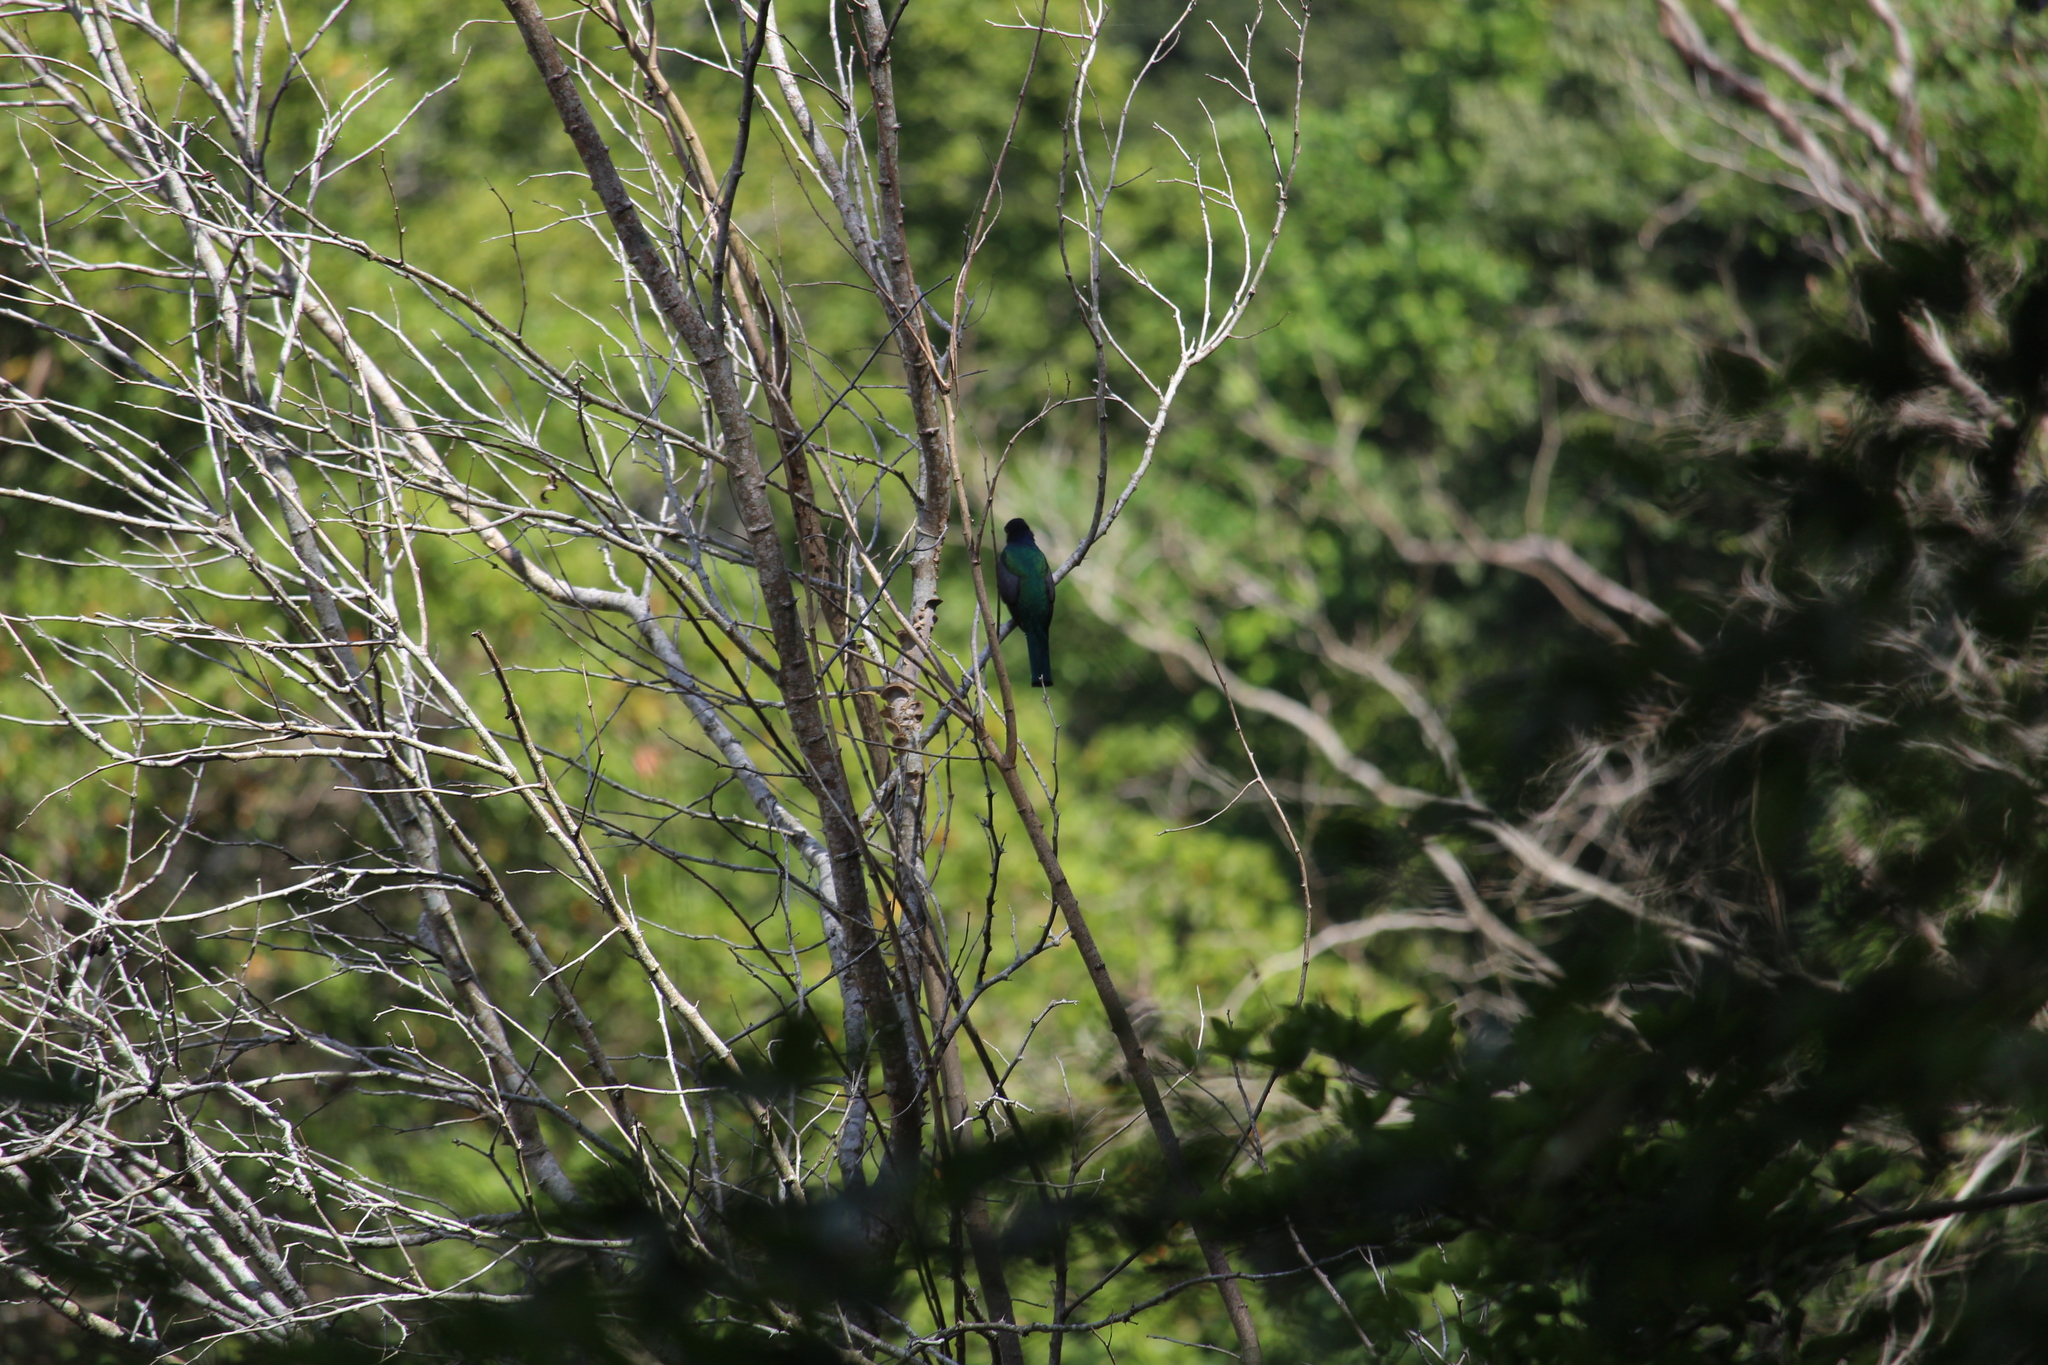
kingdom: Animalia
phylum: Chordata
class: Aves
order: Trogoniformes
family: Trogonidae
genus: Trogon
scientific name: Trogon caligatus
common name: Gartered trogon
